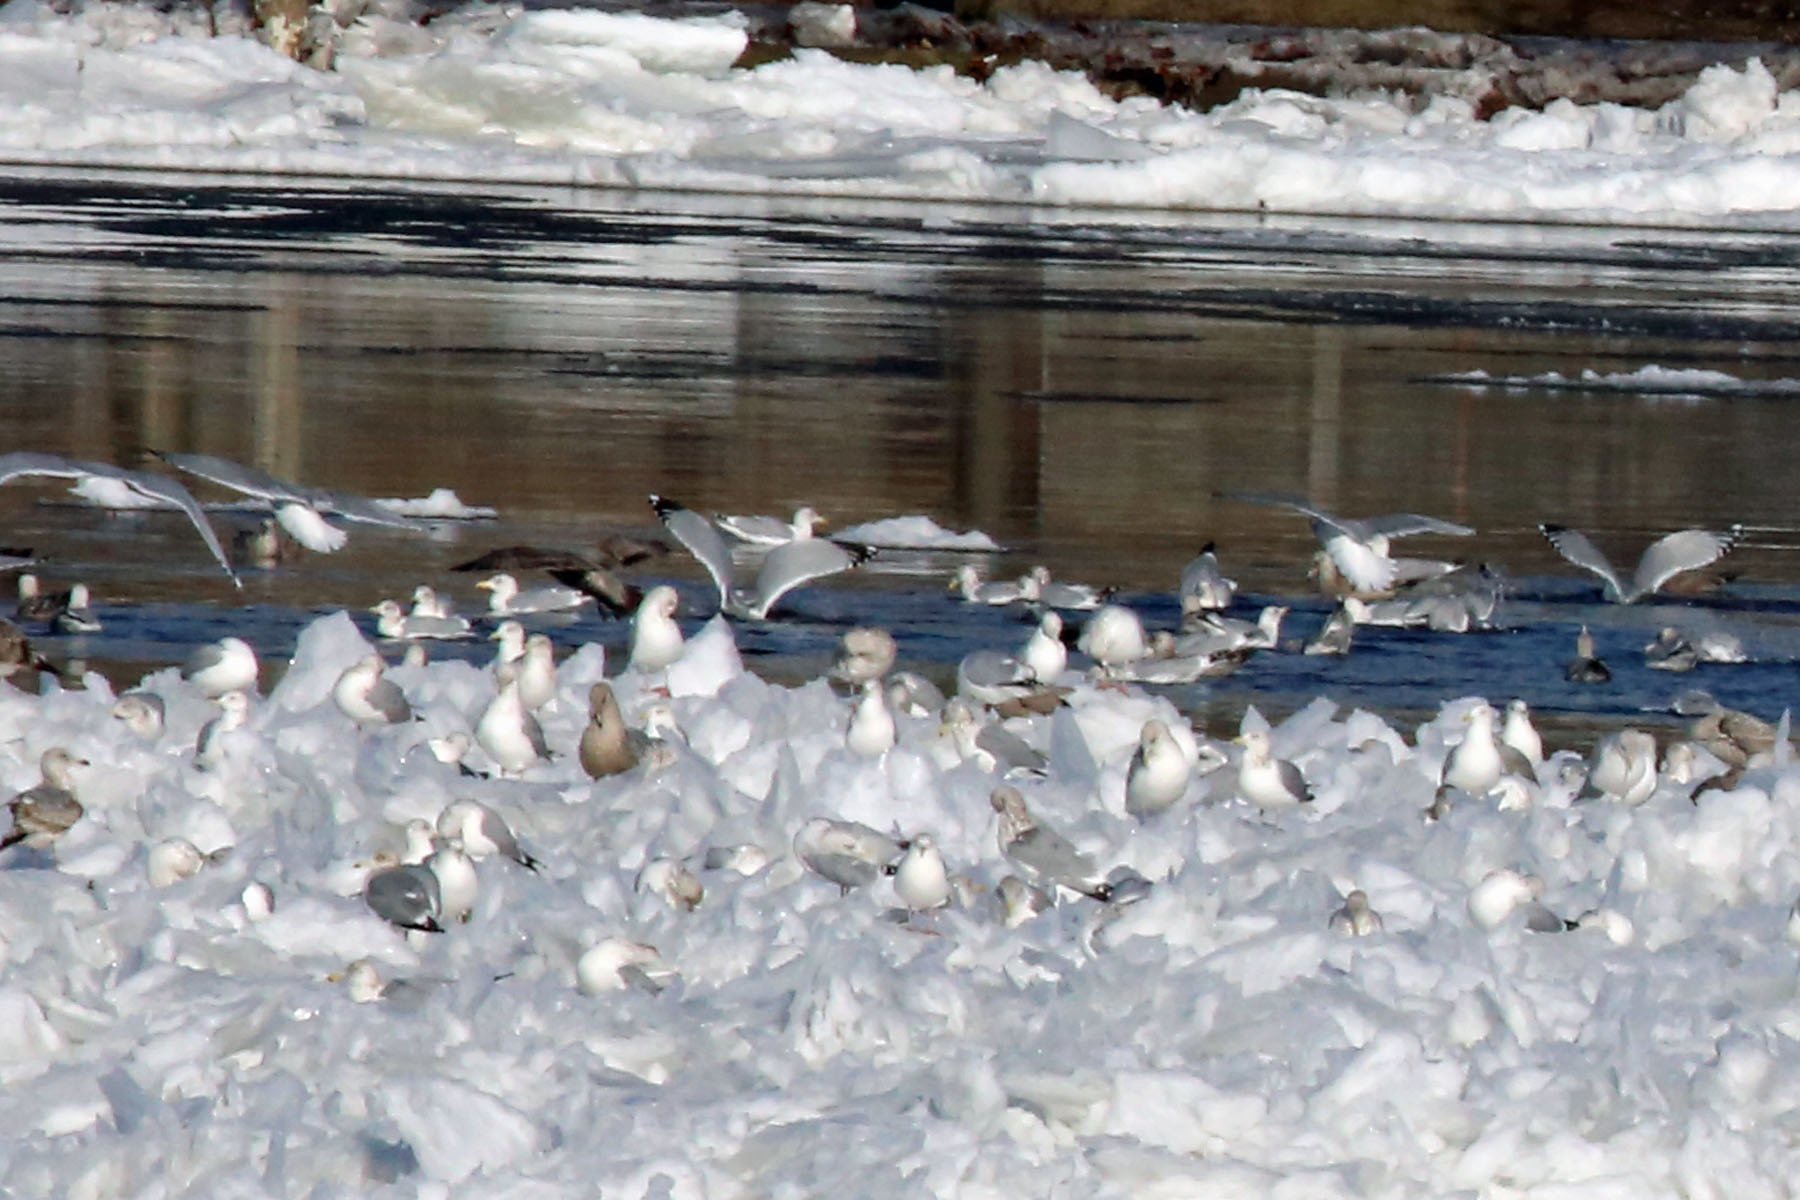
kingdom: Animalia
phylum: Chordata
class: Aves
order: Charadriiformes
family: Laridae
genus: Larus
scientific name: Larus argentatus
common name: Herring gull
